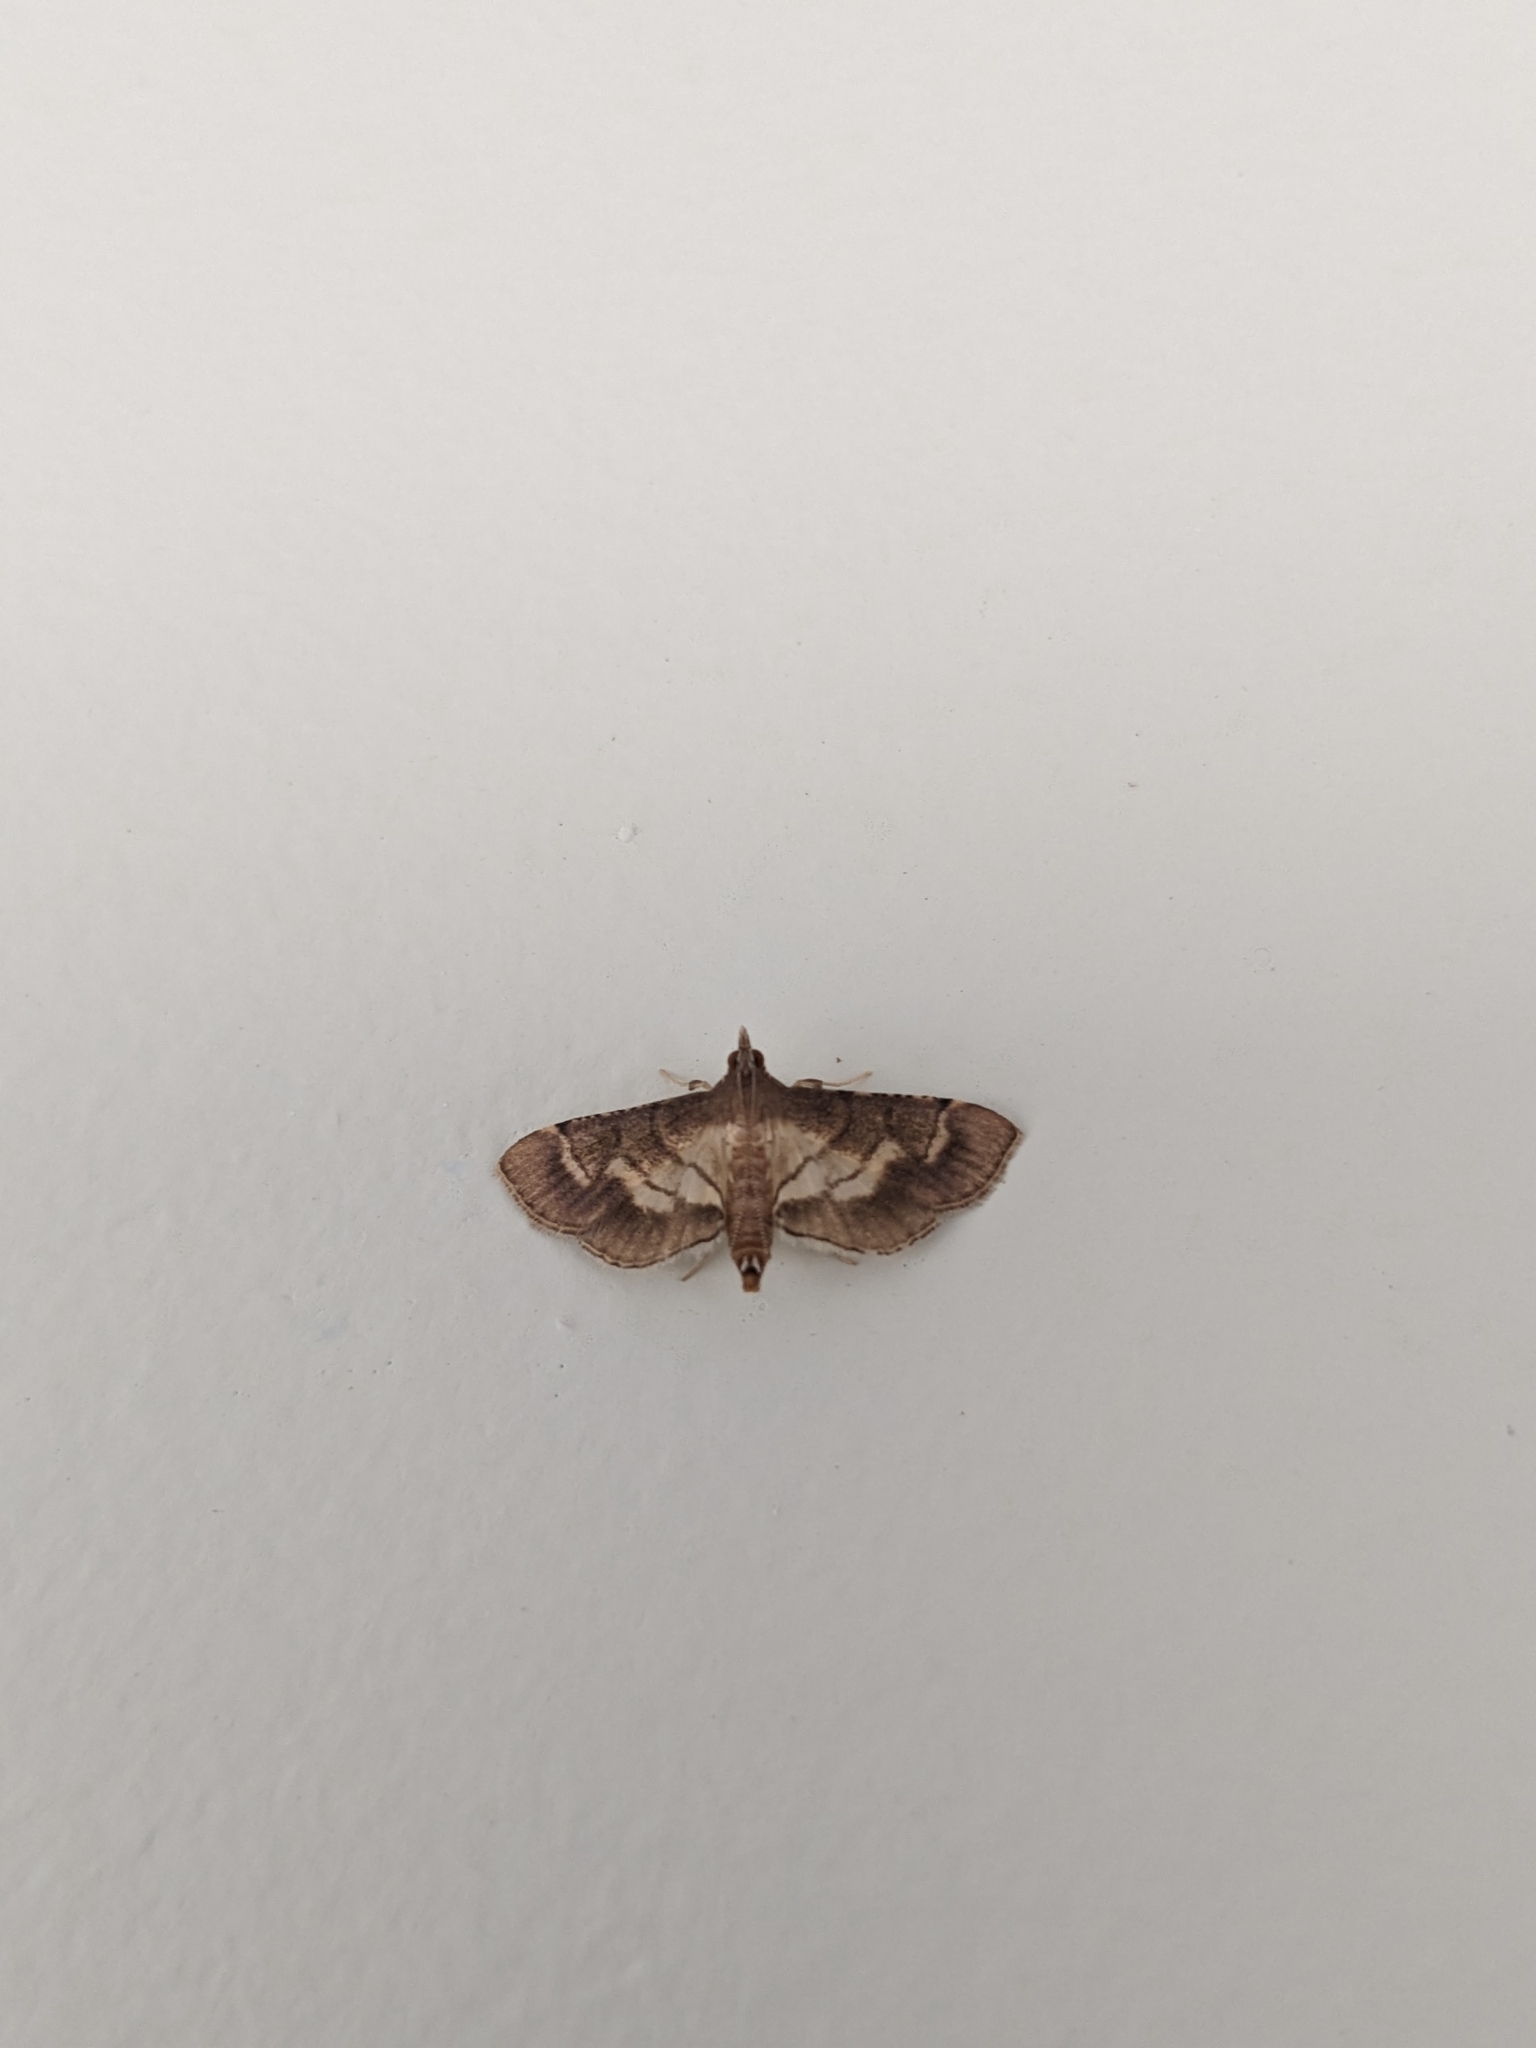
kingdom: Animalia
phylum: Arthropoda
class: Insecta
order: Lepidoptera
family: Crambidae
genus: Cnaphalocrocis
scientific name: Cnaphalocrocis trebiusalis
